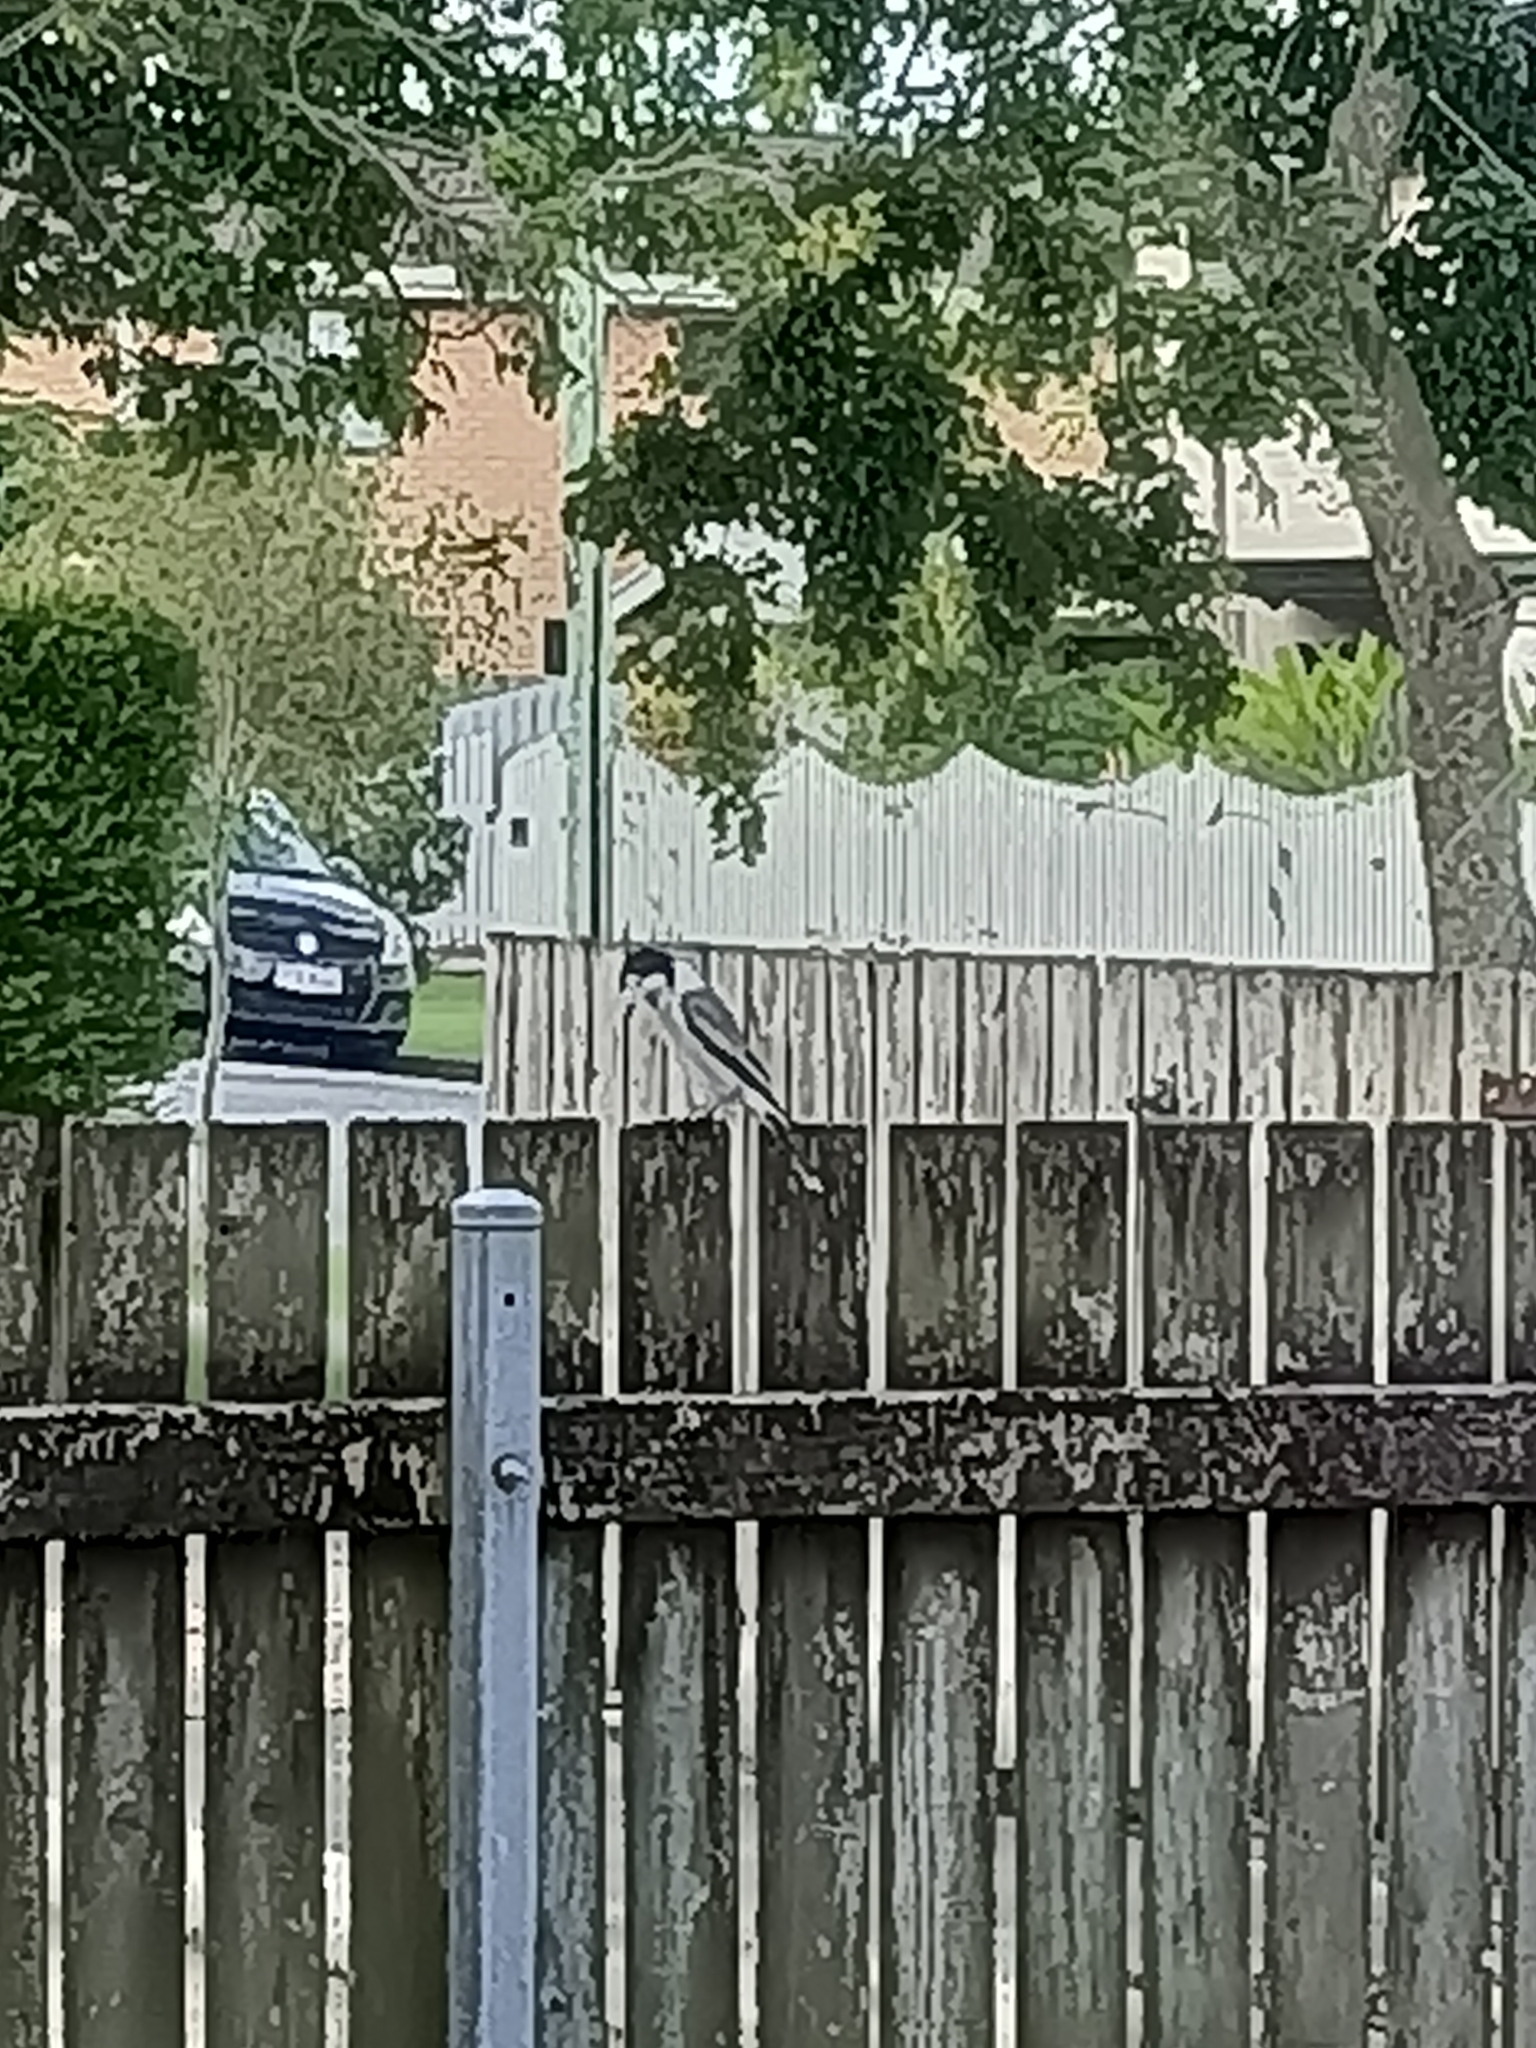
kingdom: Animalia
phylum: Chordata
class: Aves
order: Passeriformes
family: Cracticidae
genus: Cracticus
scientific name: Cracticus torquatus
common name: Grey butcherbird
